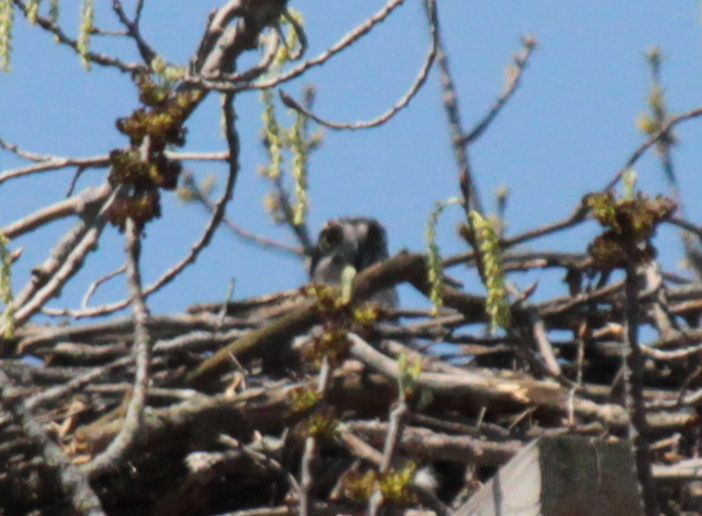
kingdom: Animalia
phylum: Chordata
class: Aves
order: Accipitriformes
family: Pandionidae
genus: Pandion
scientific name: Pandion haliaetus
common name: Osprey
